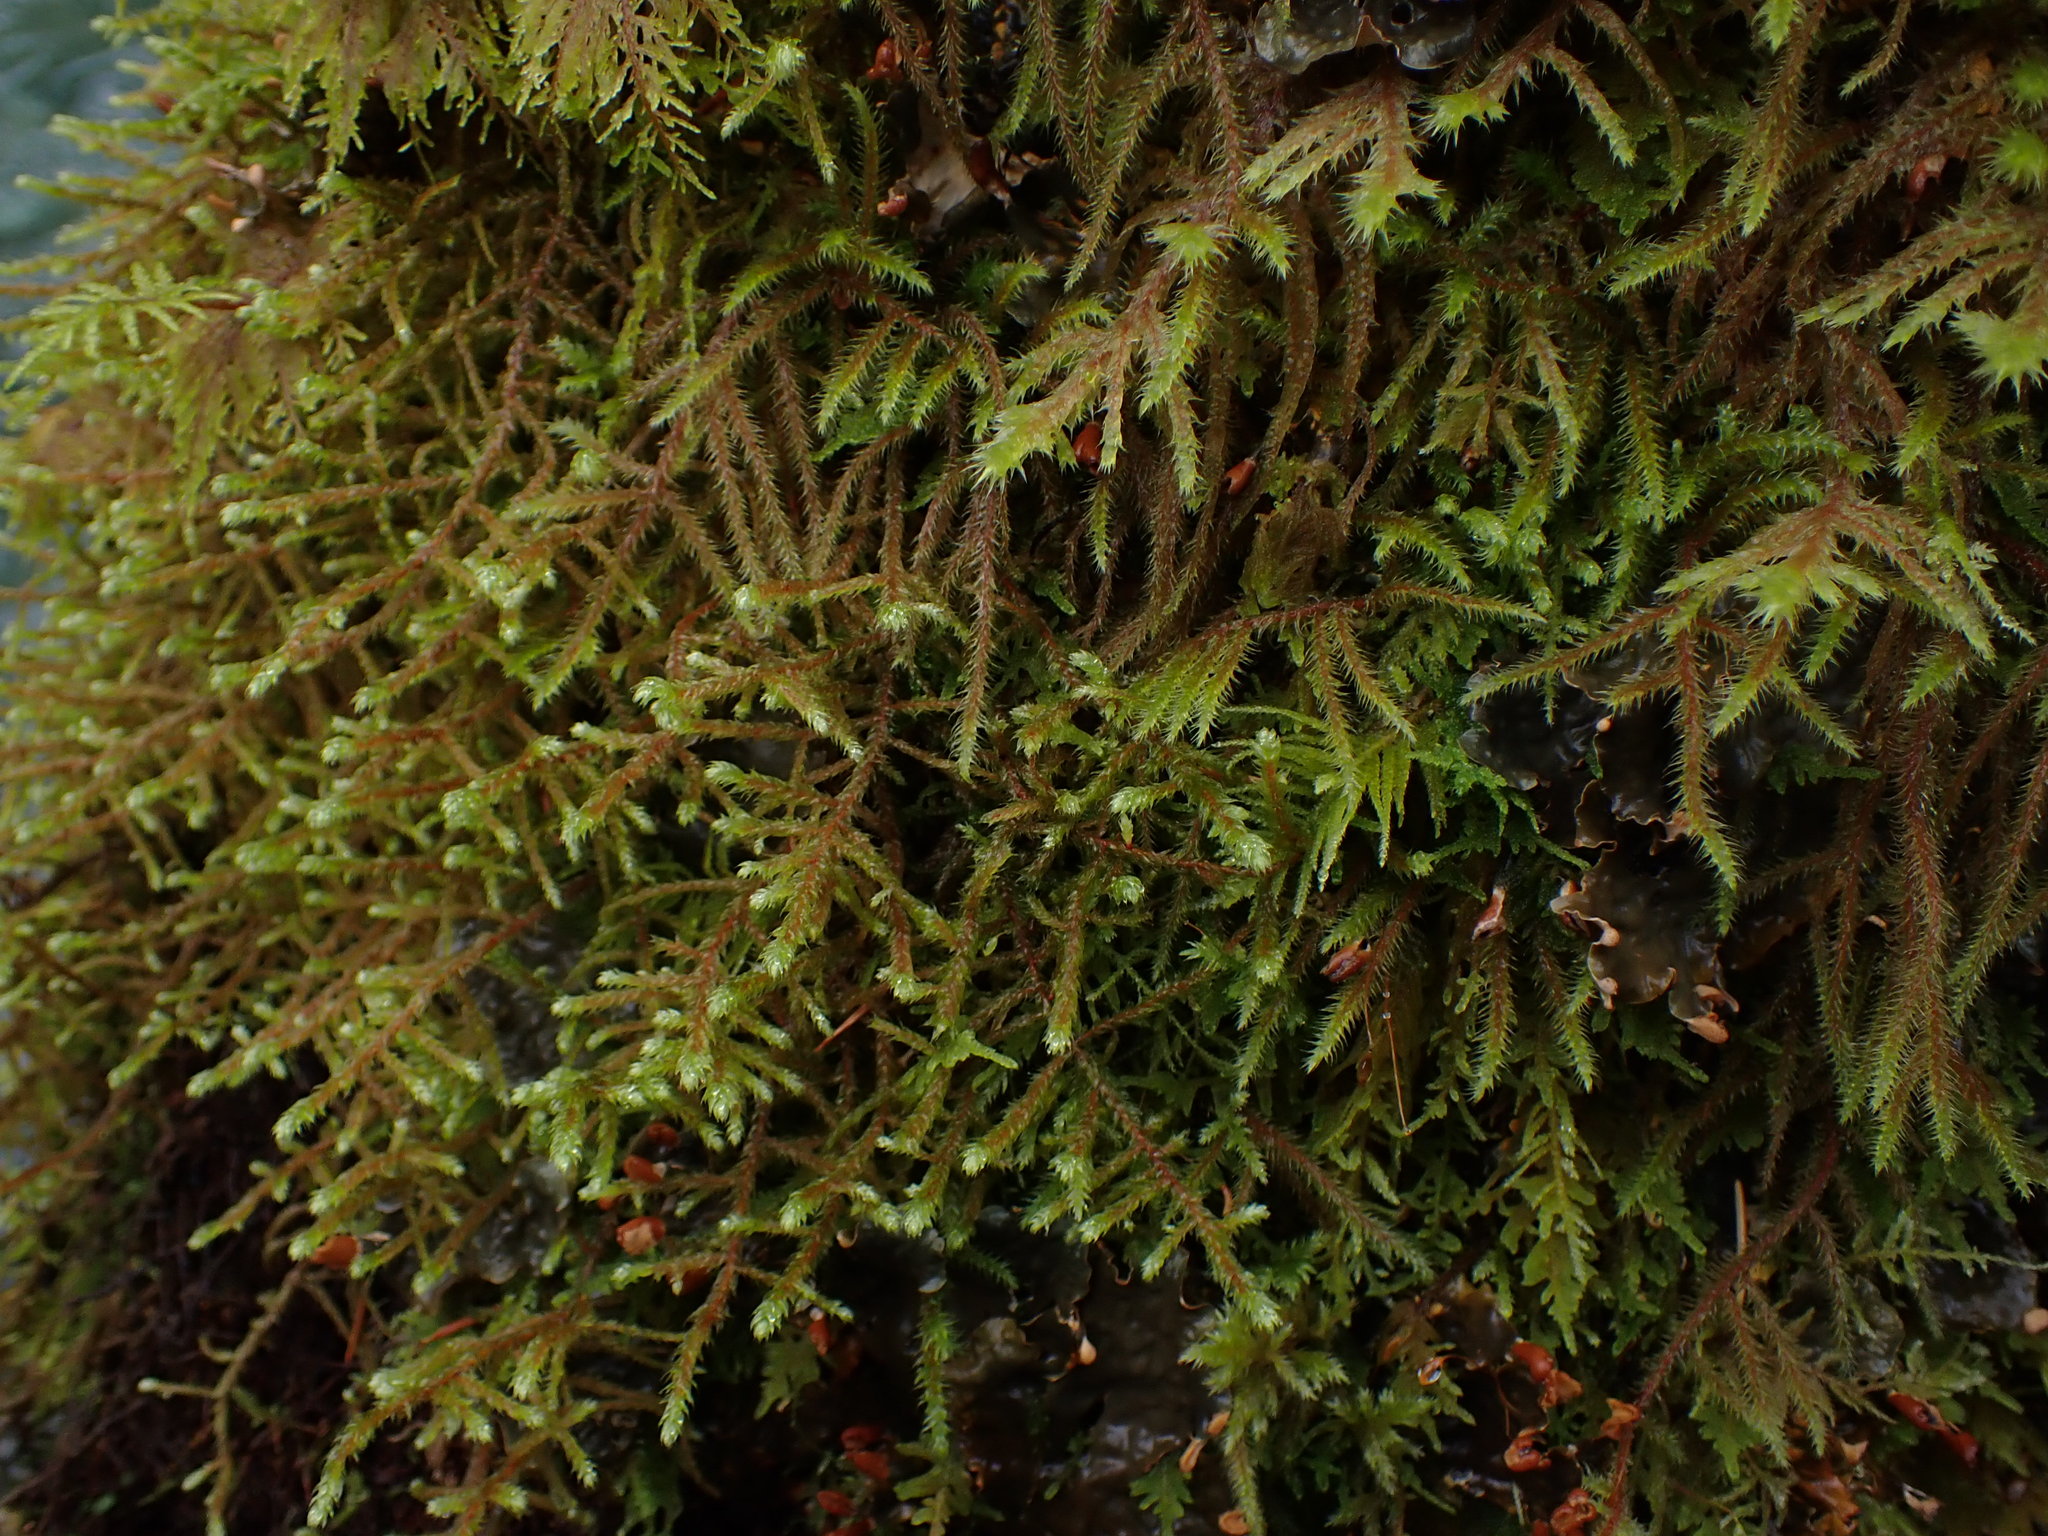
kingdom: Plantae
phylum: Bryophyta
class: Bryopsida
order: Hypnales
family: Antitrichiaceae
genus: Antitrichia
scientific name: Antitrichia curtipendula
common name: Pendulous wing-moss
